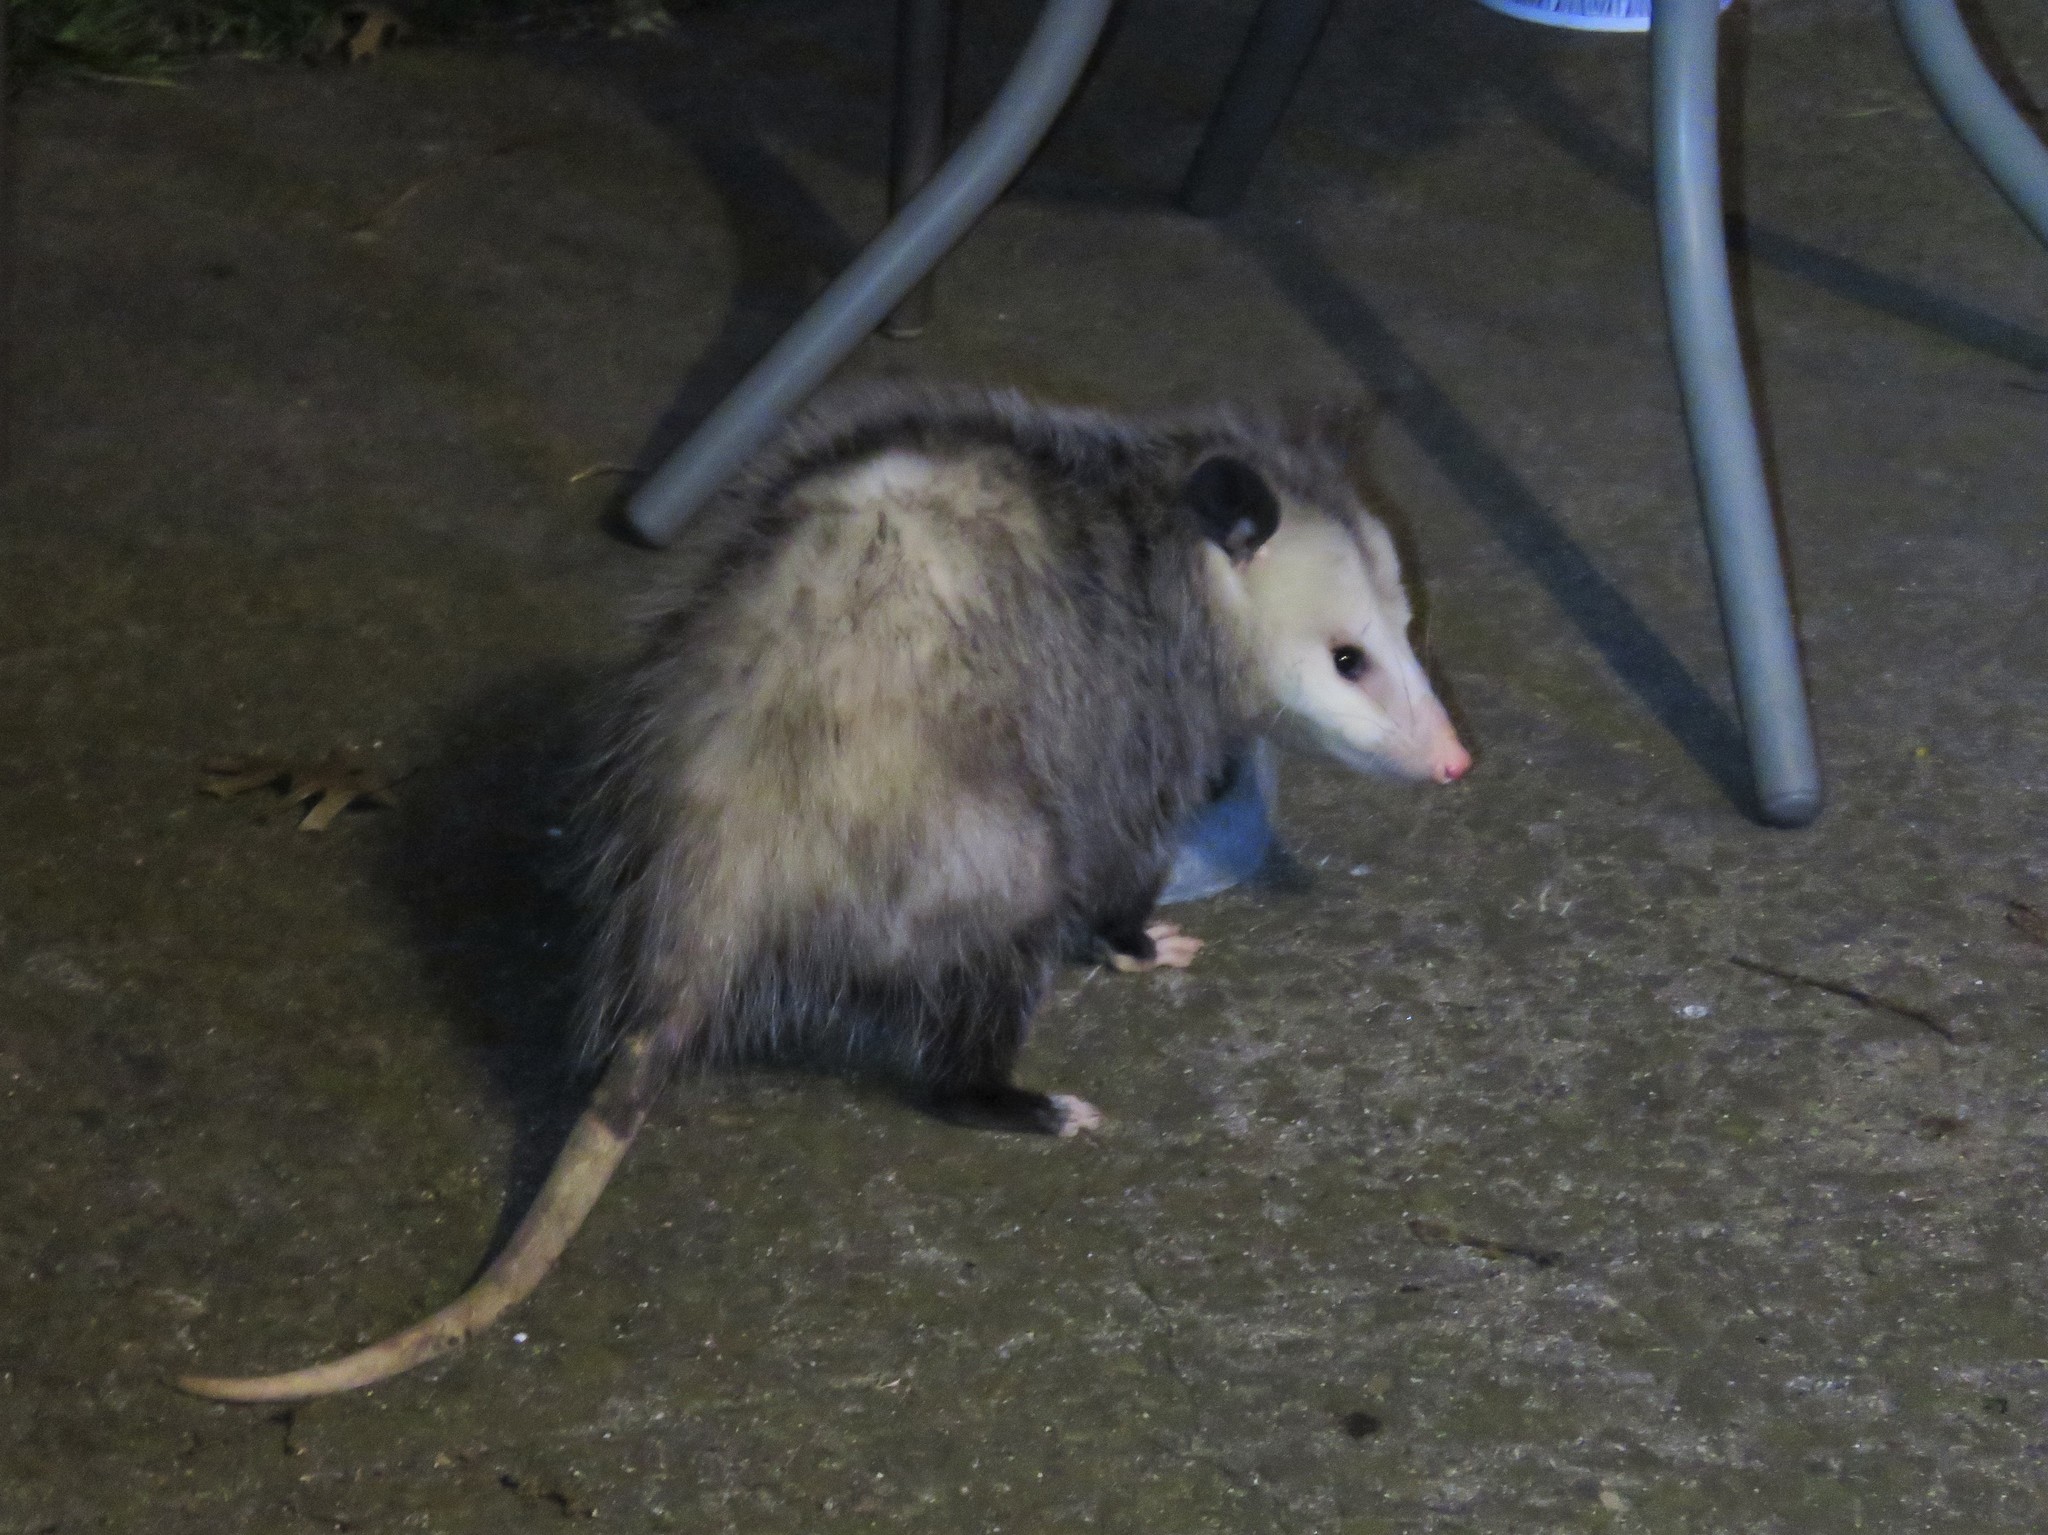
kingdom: Animalia
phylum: Chordata
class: Mammalia
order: Didelphimorphia
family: Didelphidae
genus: Didelphis
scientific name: Didelphis virginiana
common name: Virginia opossum
